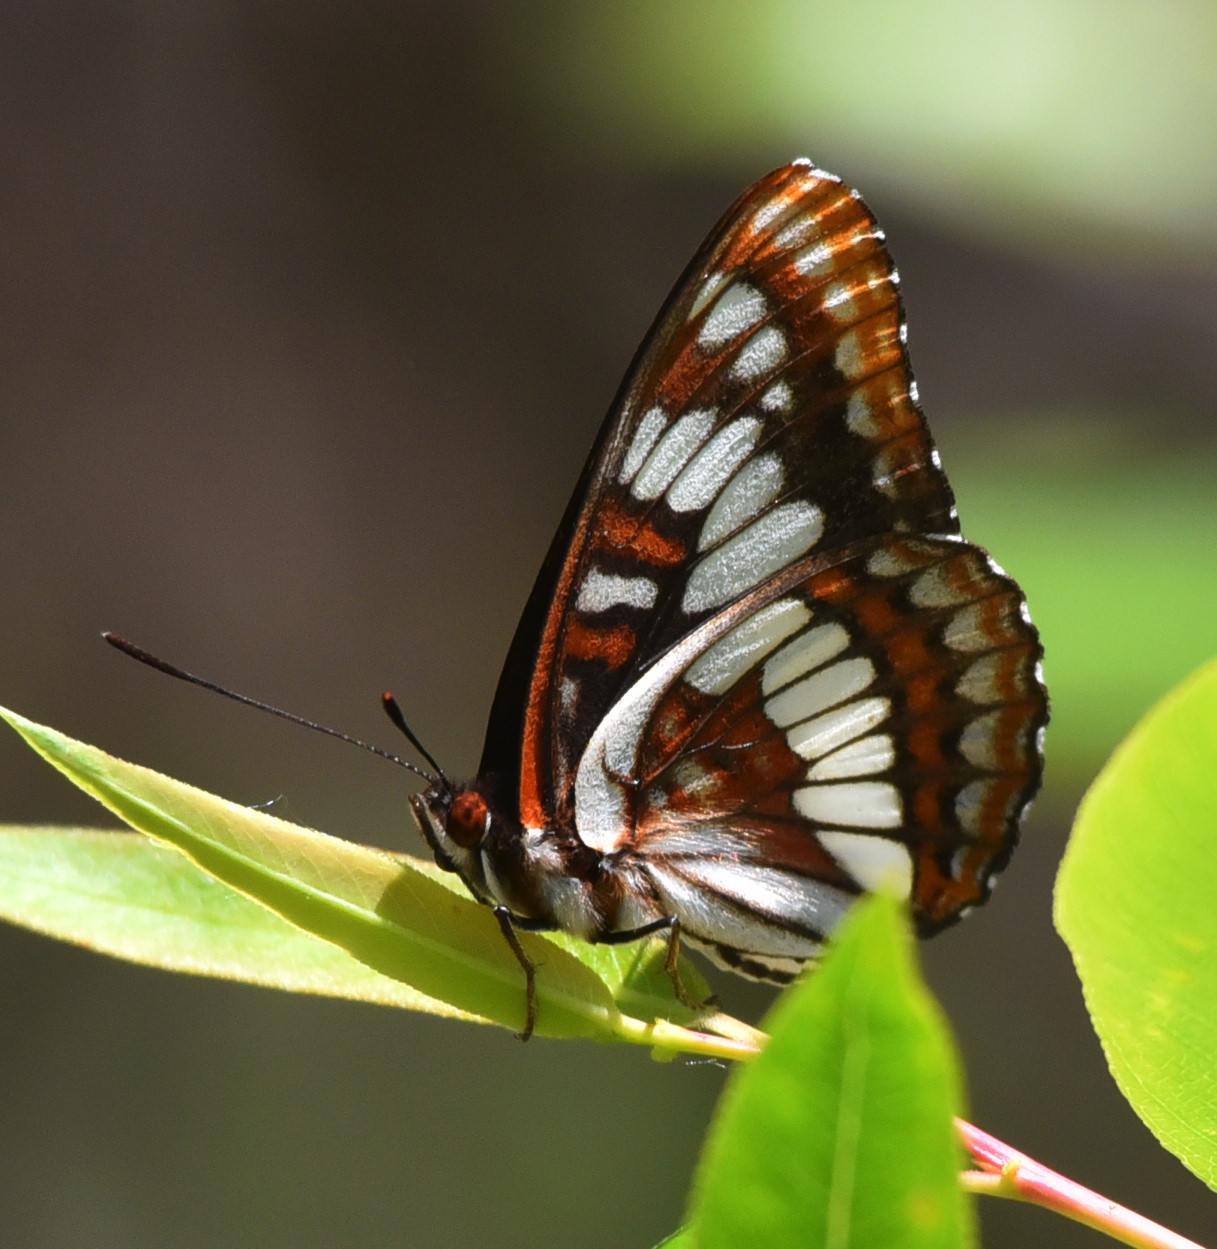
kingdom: Animalia
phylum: Arthropoda
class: Insecta
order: Lepidoptera
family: Nymphalidae
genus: Limenitis
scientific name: Limenitis lorquini
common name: Lorquin's admiral
